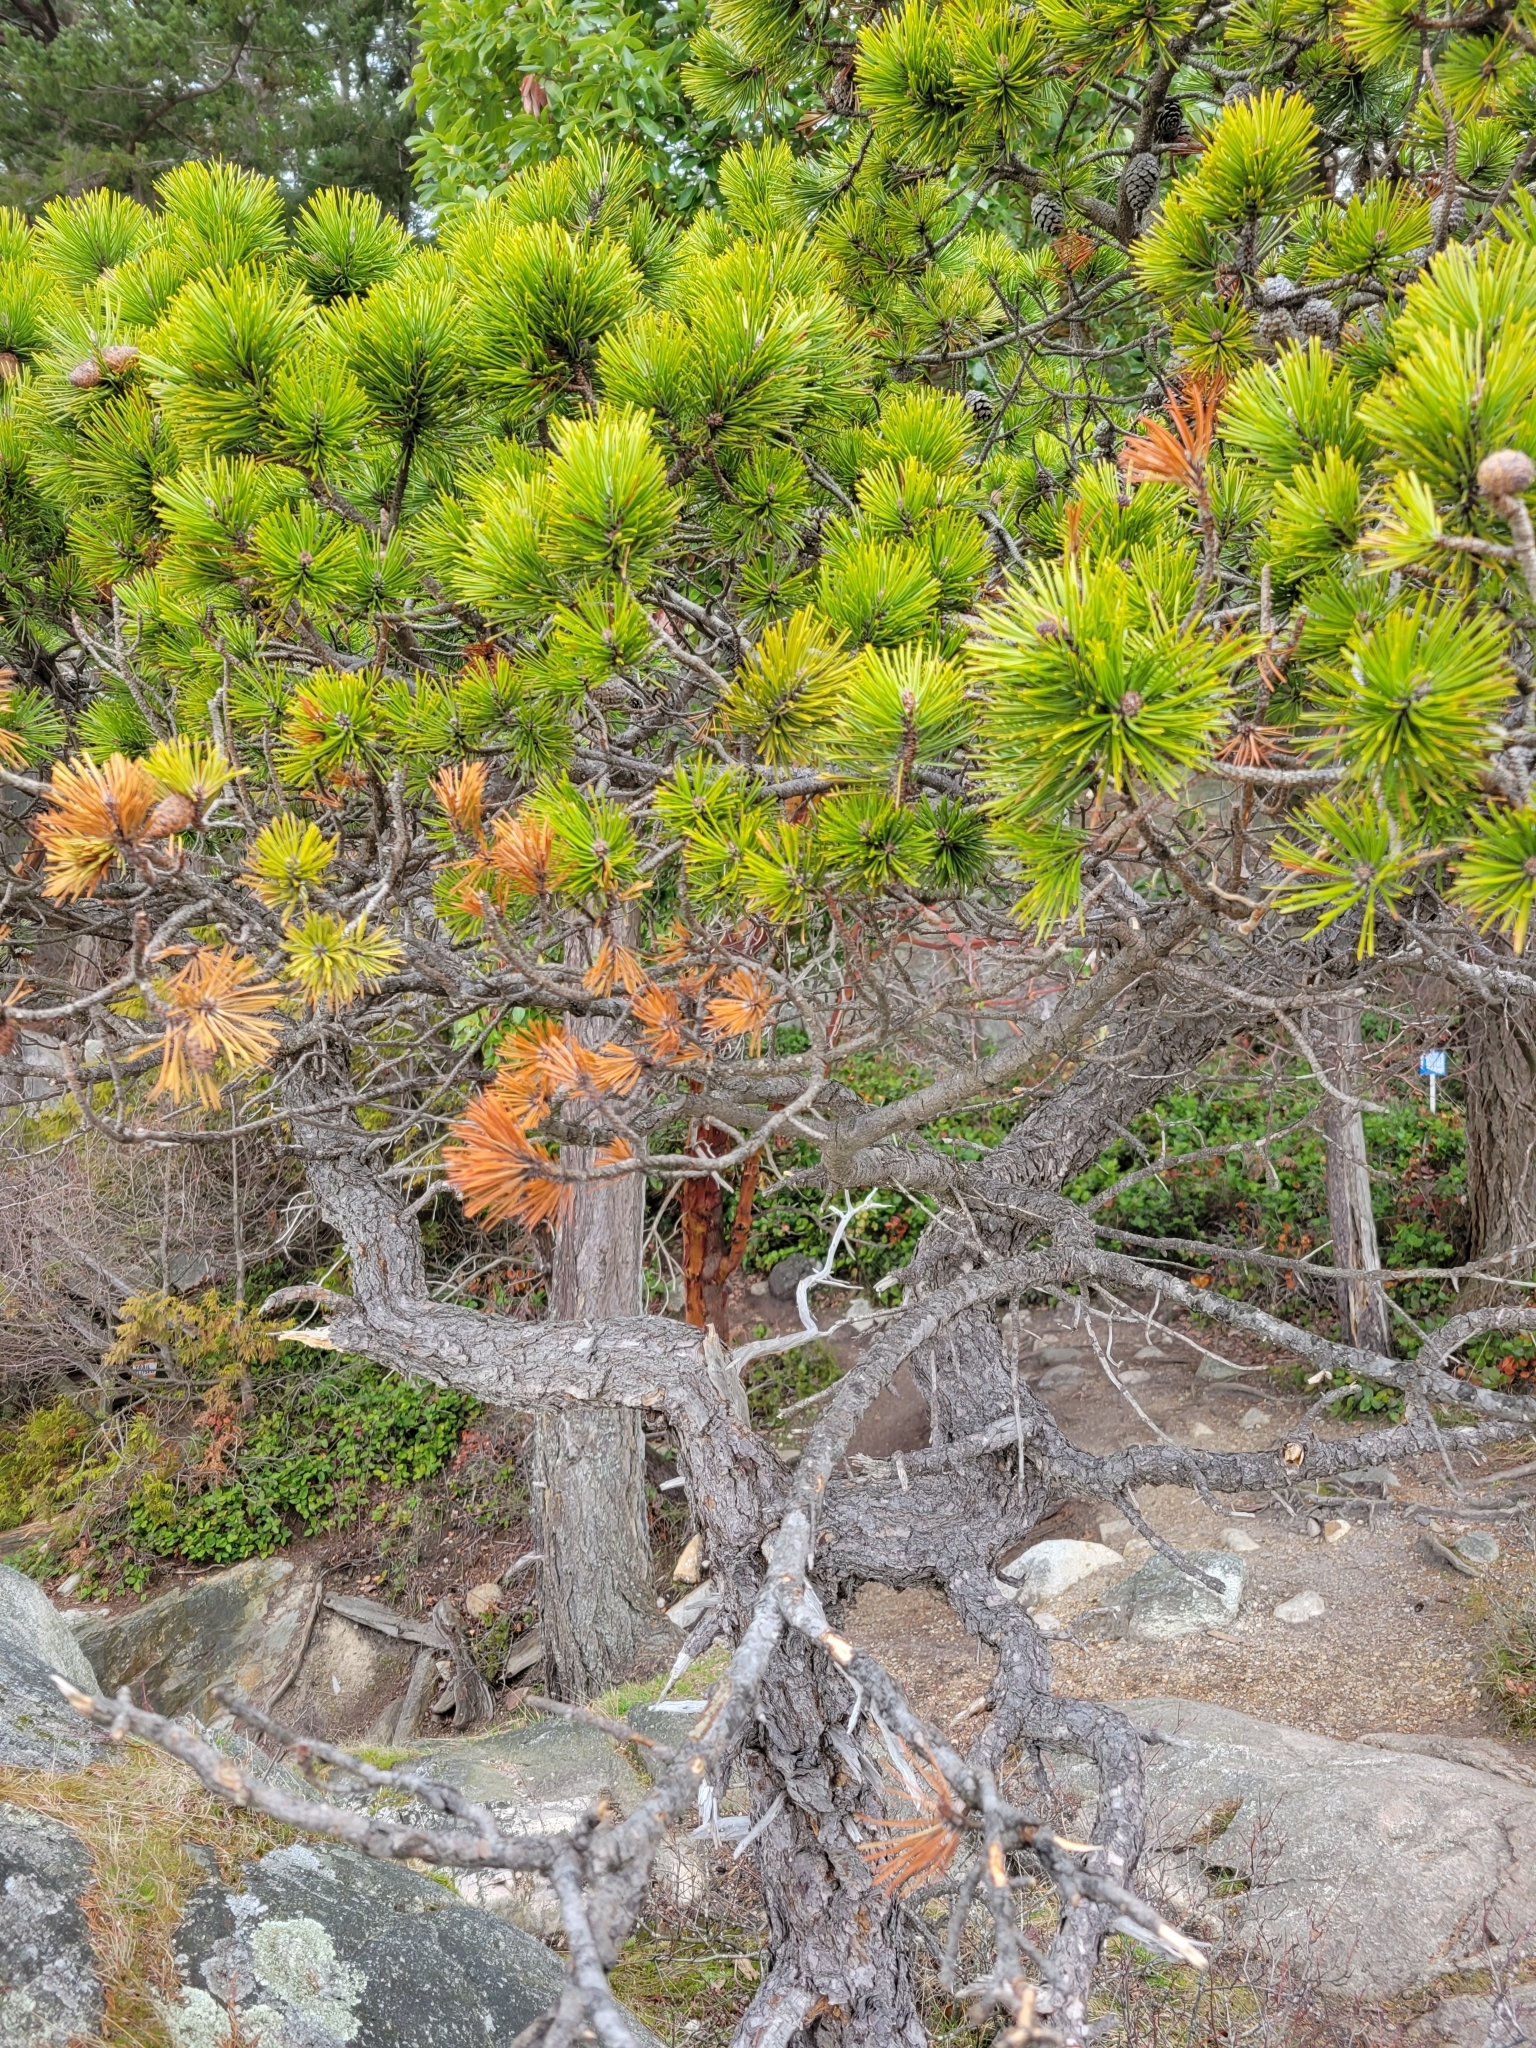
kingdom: Plantae
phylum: Tracheophyta
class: Pinopsida
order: Pinales
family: Pinaceae
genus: Pinus
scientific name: Pinus contorta
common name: Lodgepole pine
